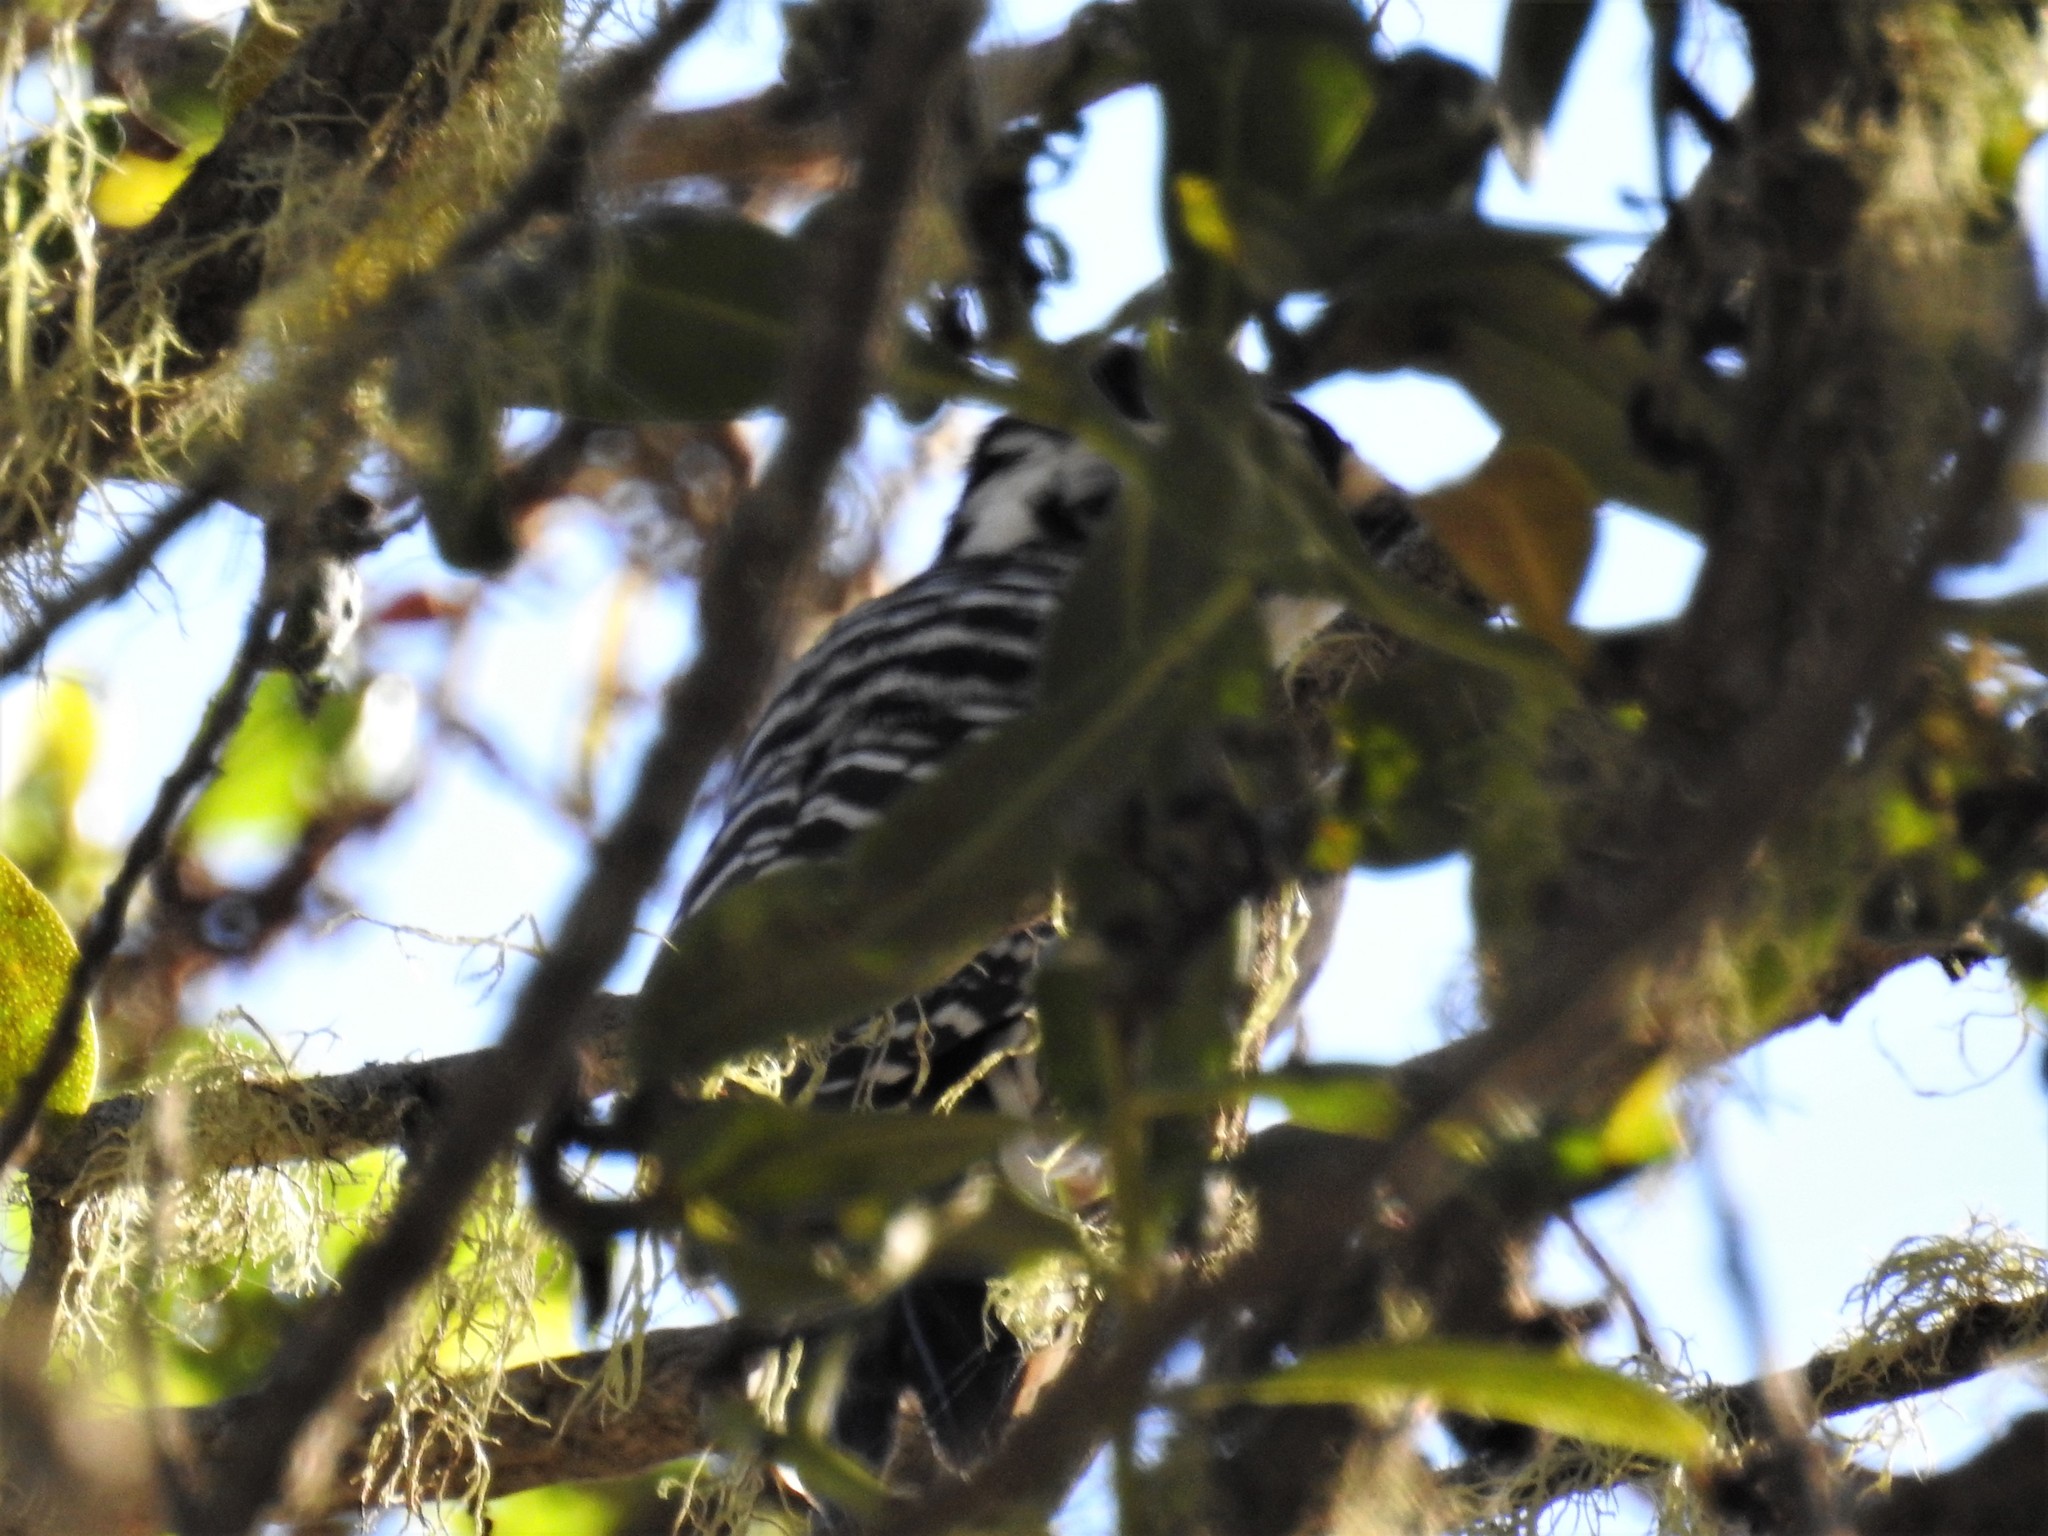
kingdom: Animalia
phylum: Chordata
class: Aves
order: Piciformes
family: Picidae
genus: Dryobates
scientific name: Dryobates nuttallii
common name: Nuttall's woodpecker
